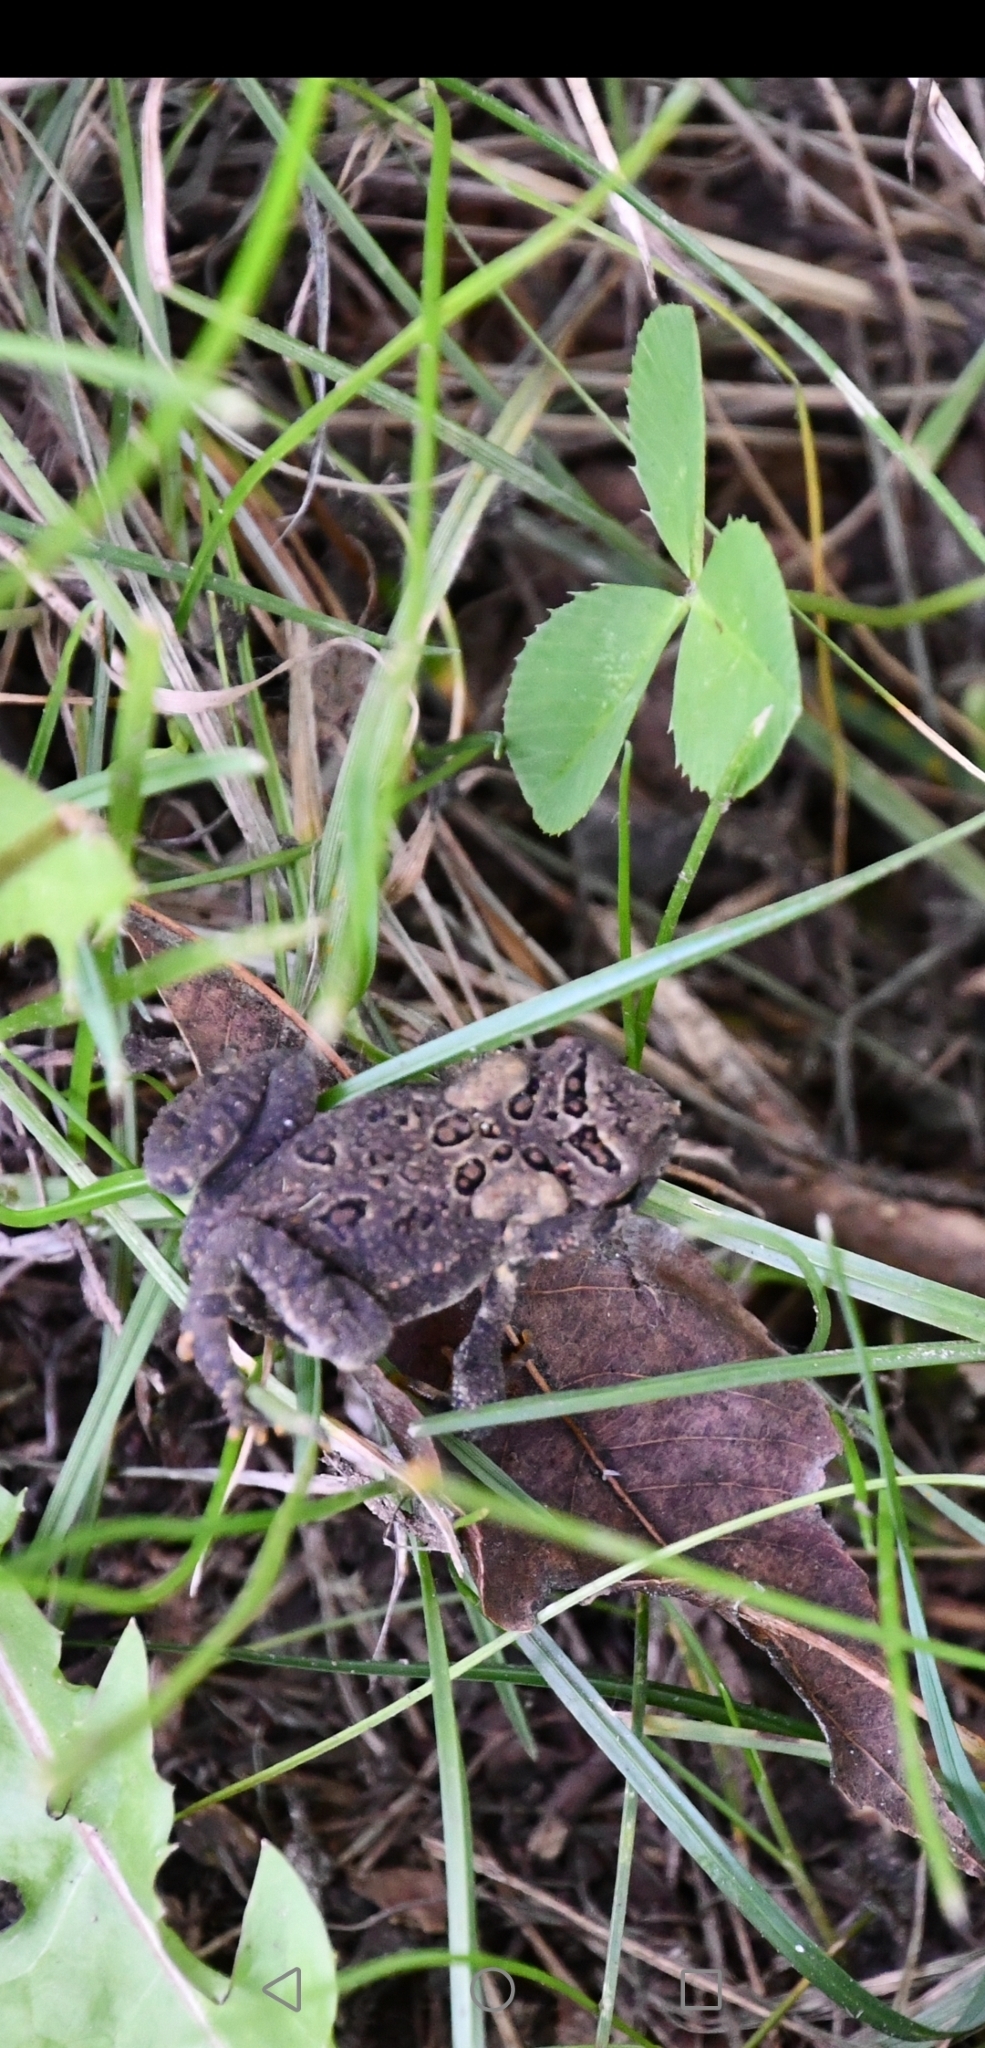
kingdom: Animalia
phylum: Chordata
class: Amphibia
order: Anura
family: Bufonidae
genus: Anaxyrus
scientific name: Anaxyrus americanus
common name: American toad
